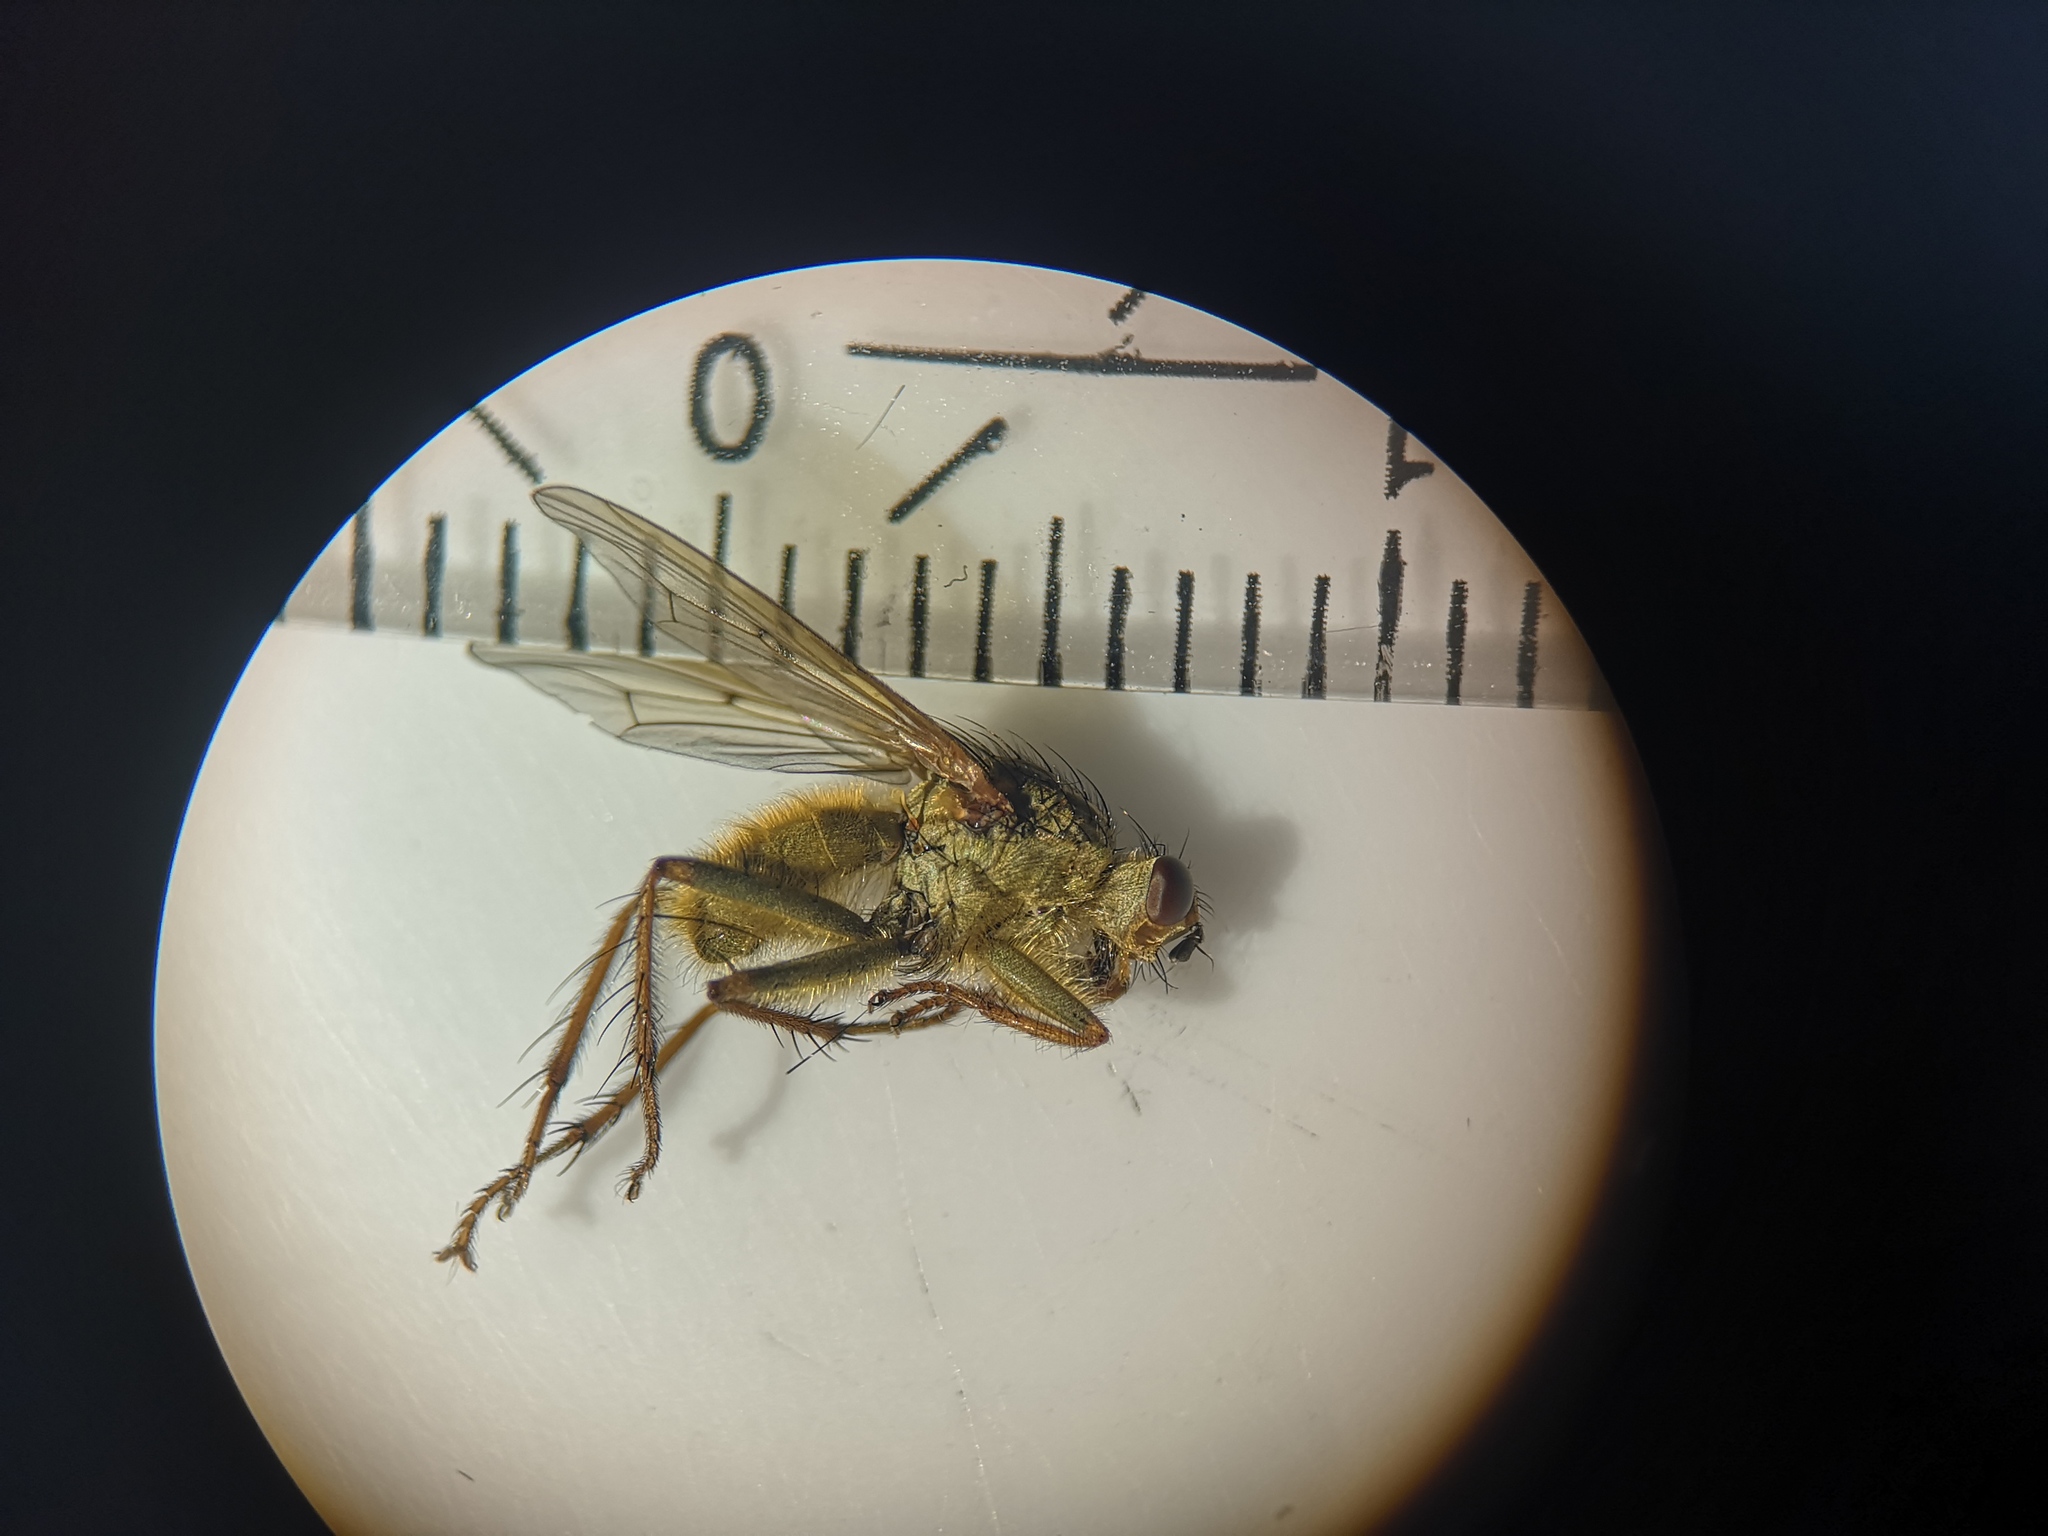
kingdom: Animalia
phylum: Arthropoda
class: Insecta
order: Diptera
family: Scathophagidae
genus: Scathophaga
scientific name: Scathophaga stercoraria
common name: Yellow dung fly
